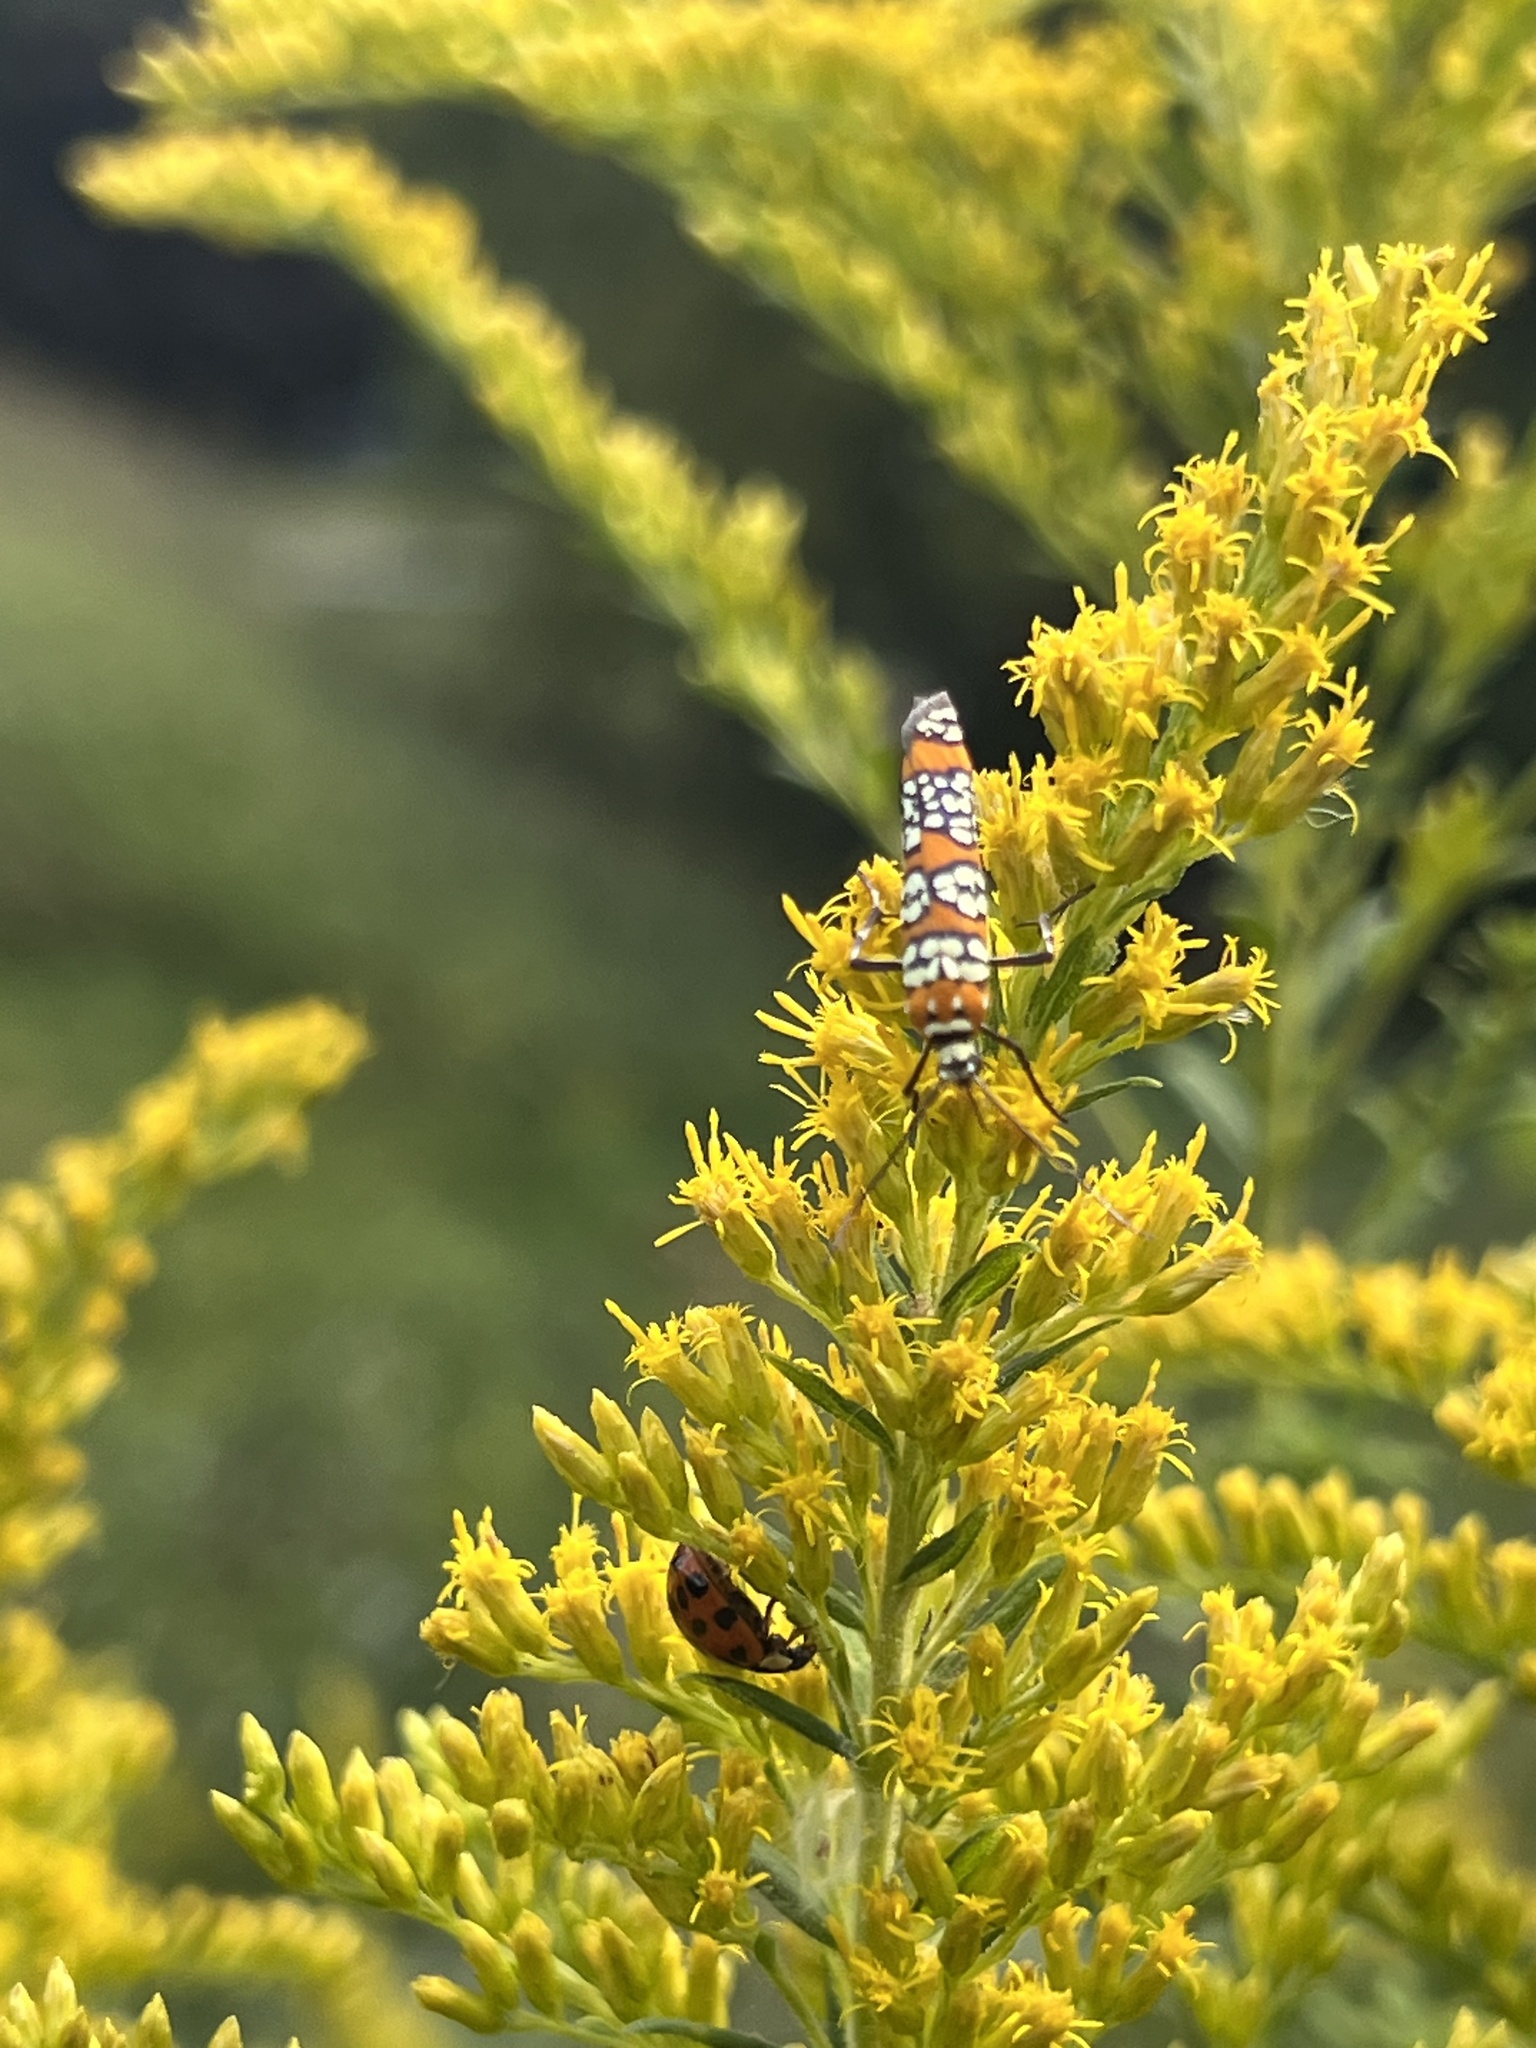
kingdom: Animalia
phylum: Arthropoda
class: Insecta
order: Lepidoptera
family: Attevidae
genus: Atteva
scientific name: Atteva punctella
